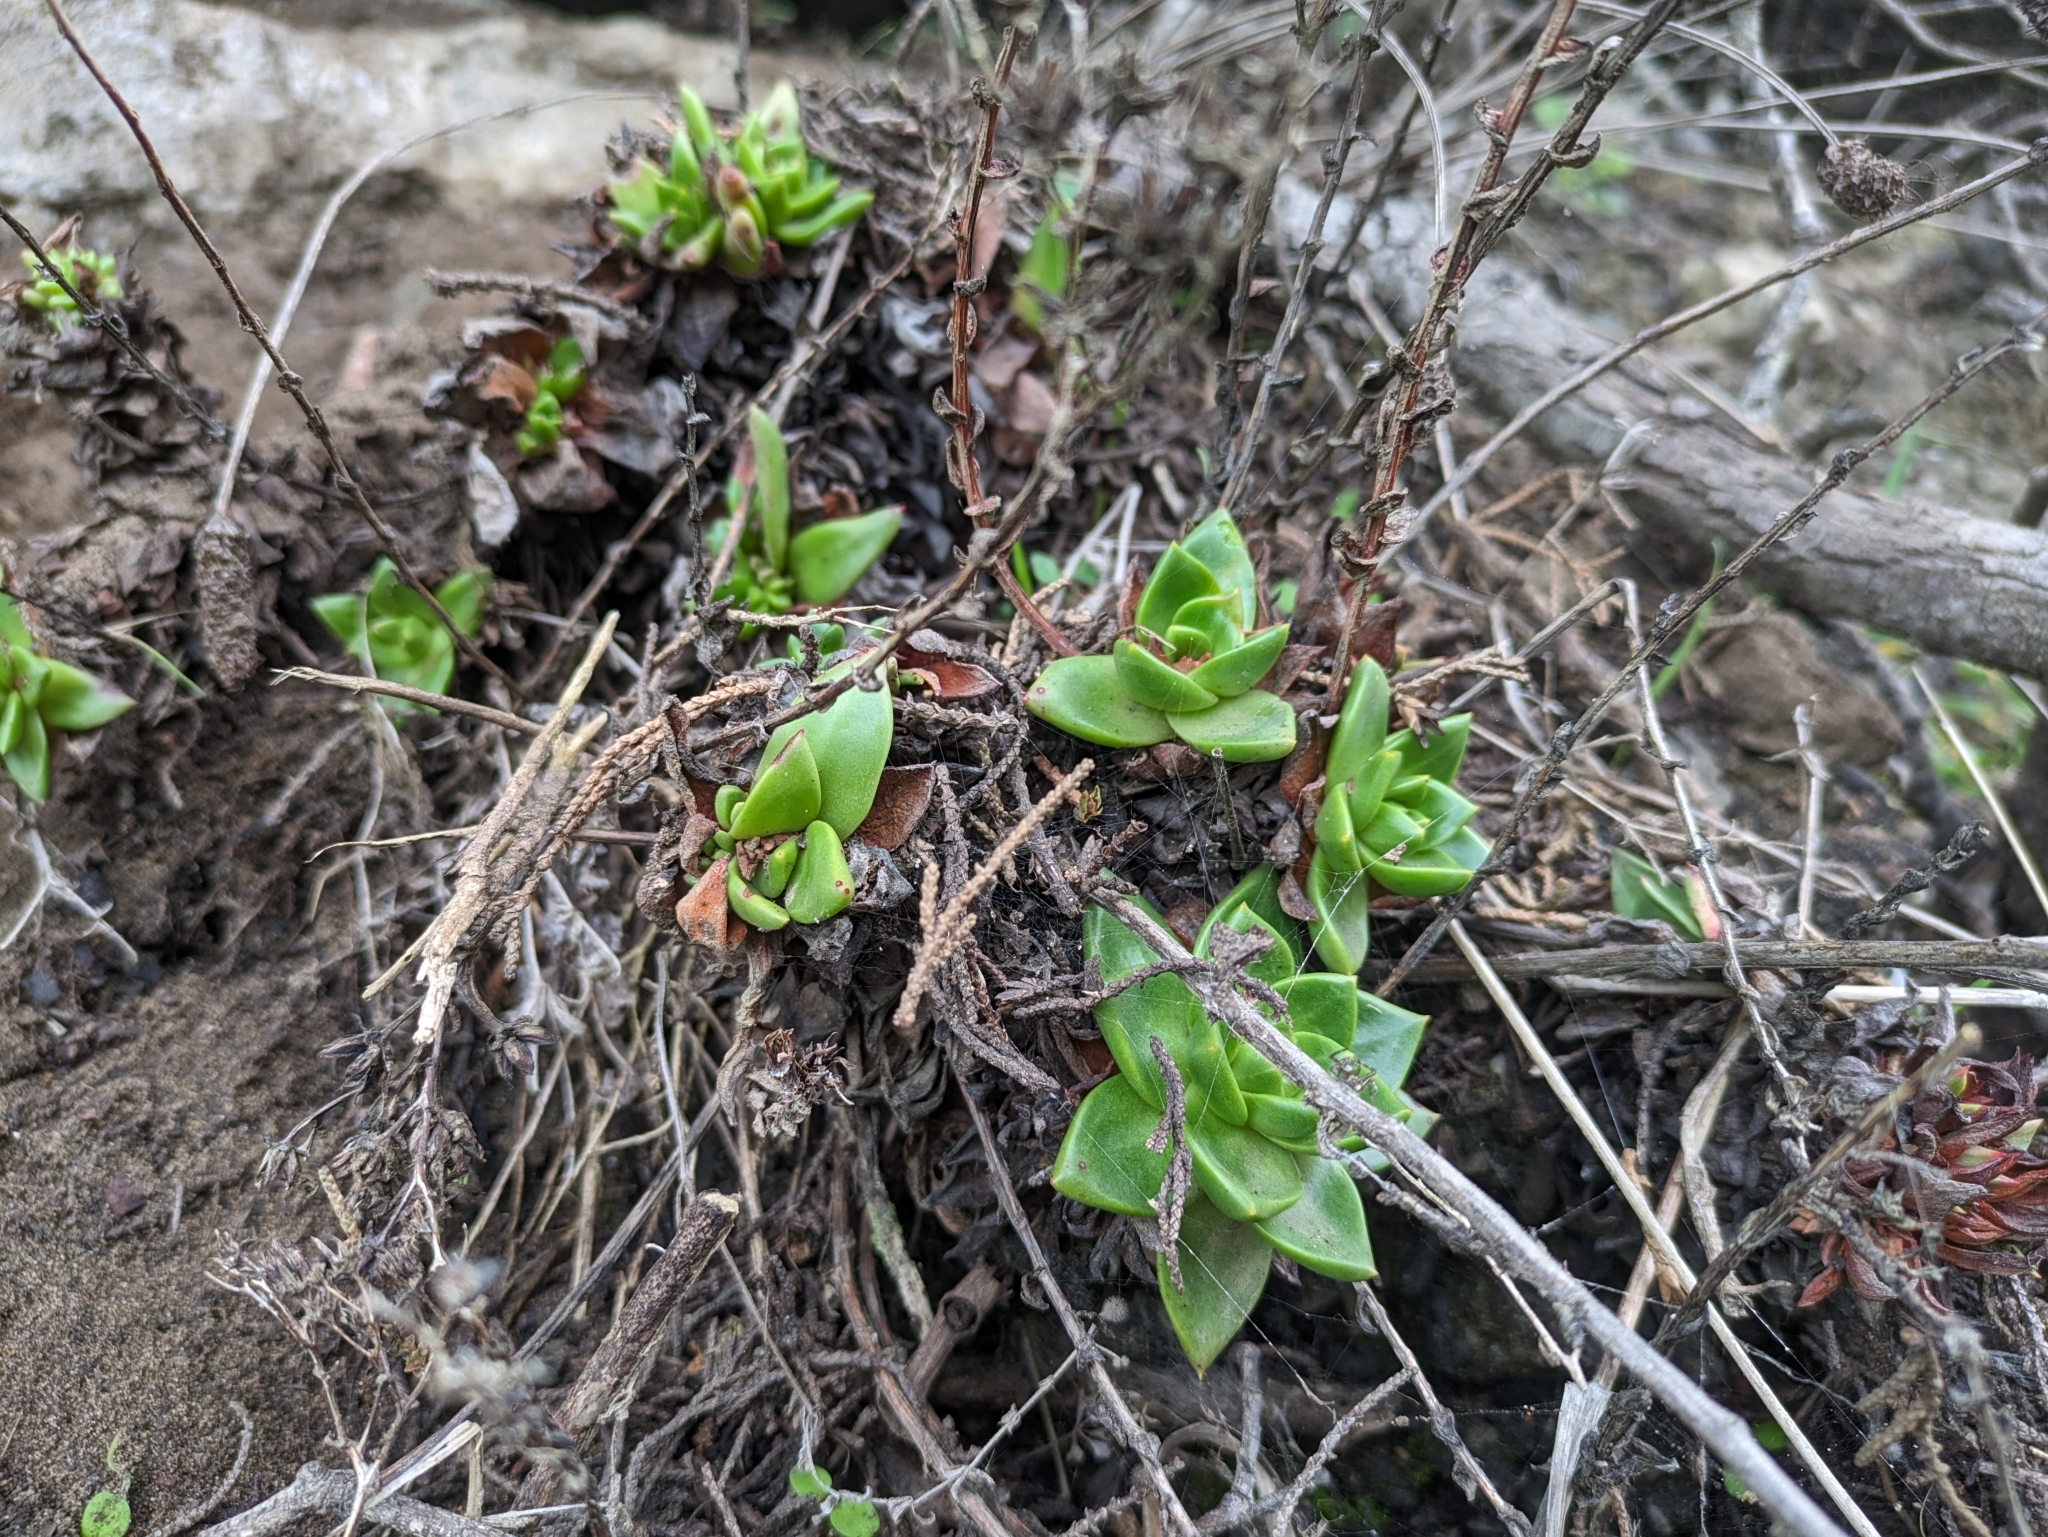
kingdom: Plantae
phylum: Tracheophyta
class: Magnoliopsida
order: Saxifragales
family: Crassulaceae
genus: Dudleya
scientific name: Dudleya farinosa
